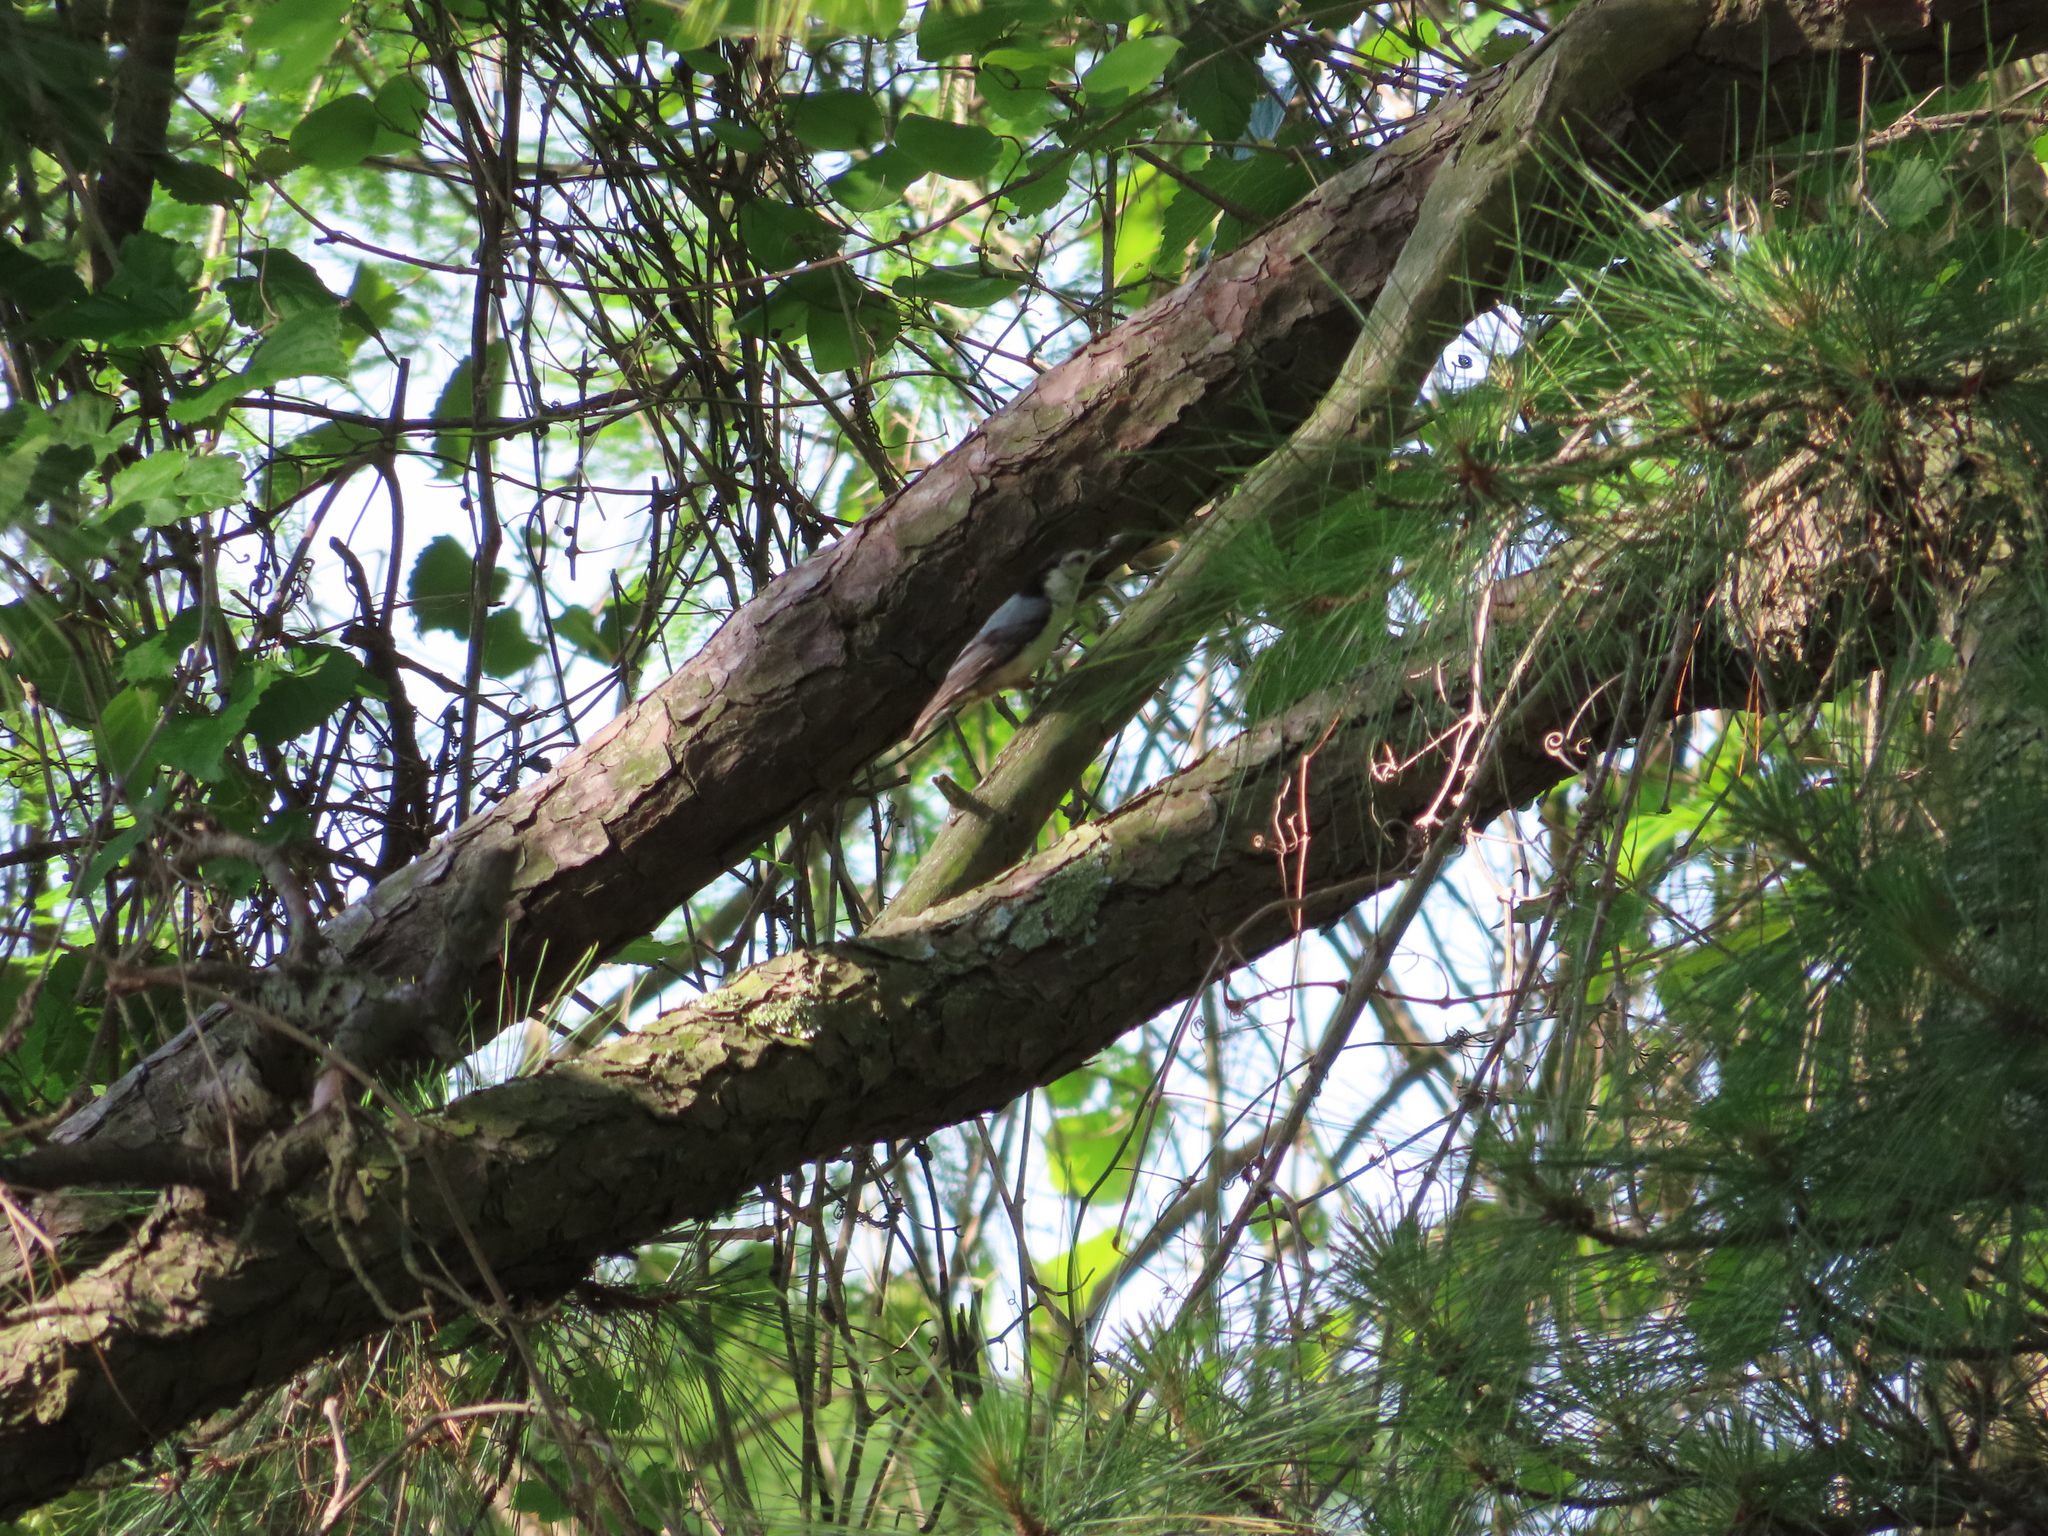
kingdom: Animalia
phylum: Chordata
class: Aves
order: Passeriformes
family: Sittidae
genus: Sitta
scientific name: Sitta carolinensis
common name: White-breasted nuthatch
